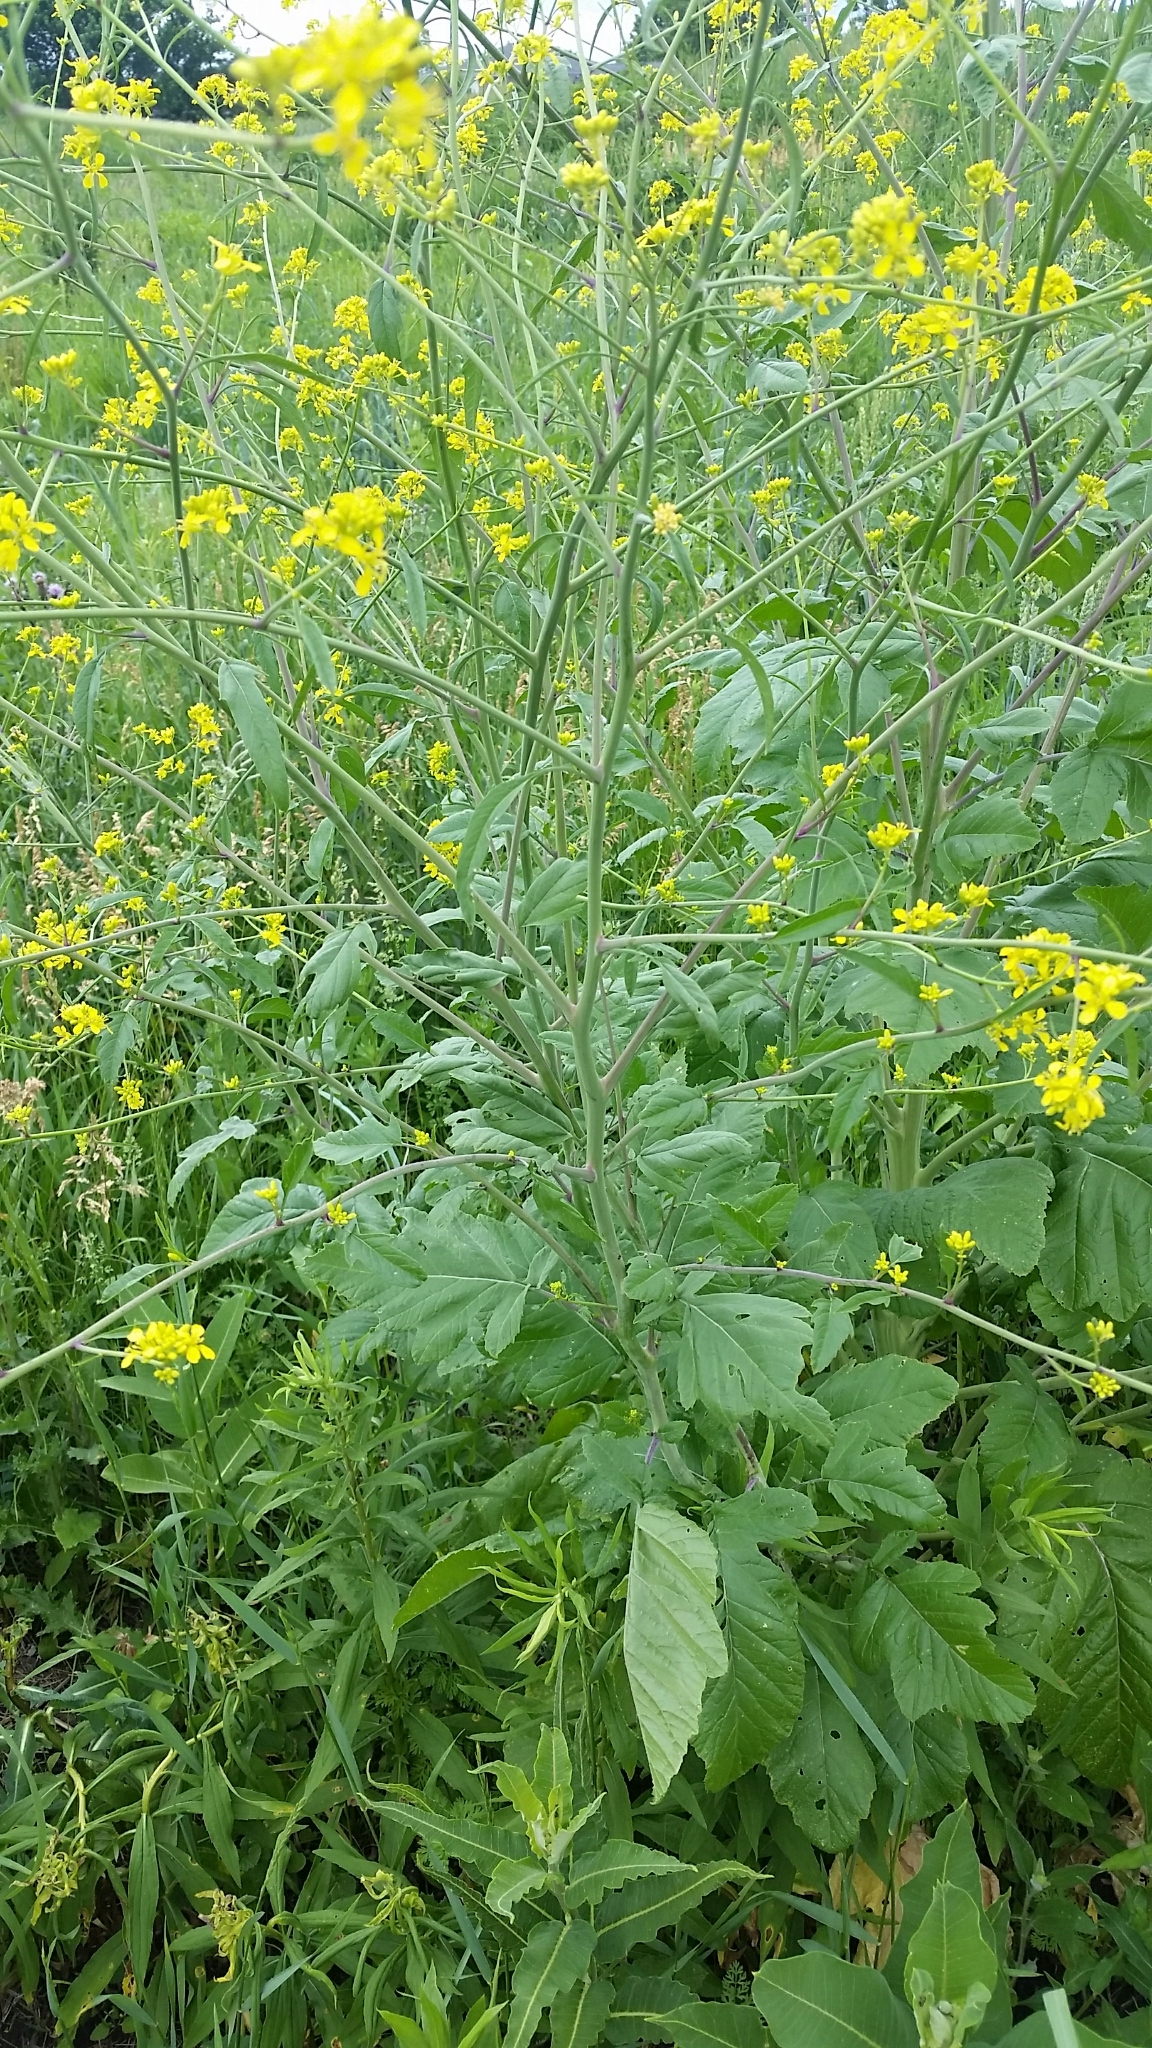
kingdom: Plantae
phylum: Tracheophyta
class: Magnoliopsida
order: Brassicales
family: Brassicaceae
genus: Brassica
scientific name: Brassica nigra
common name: Black mustard
